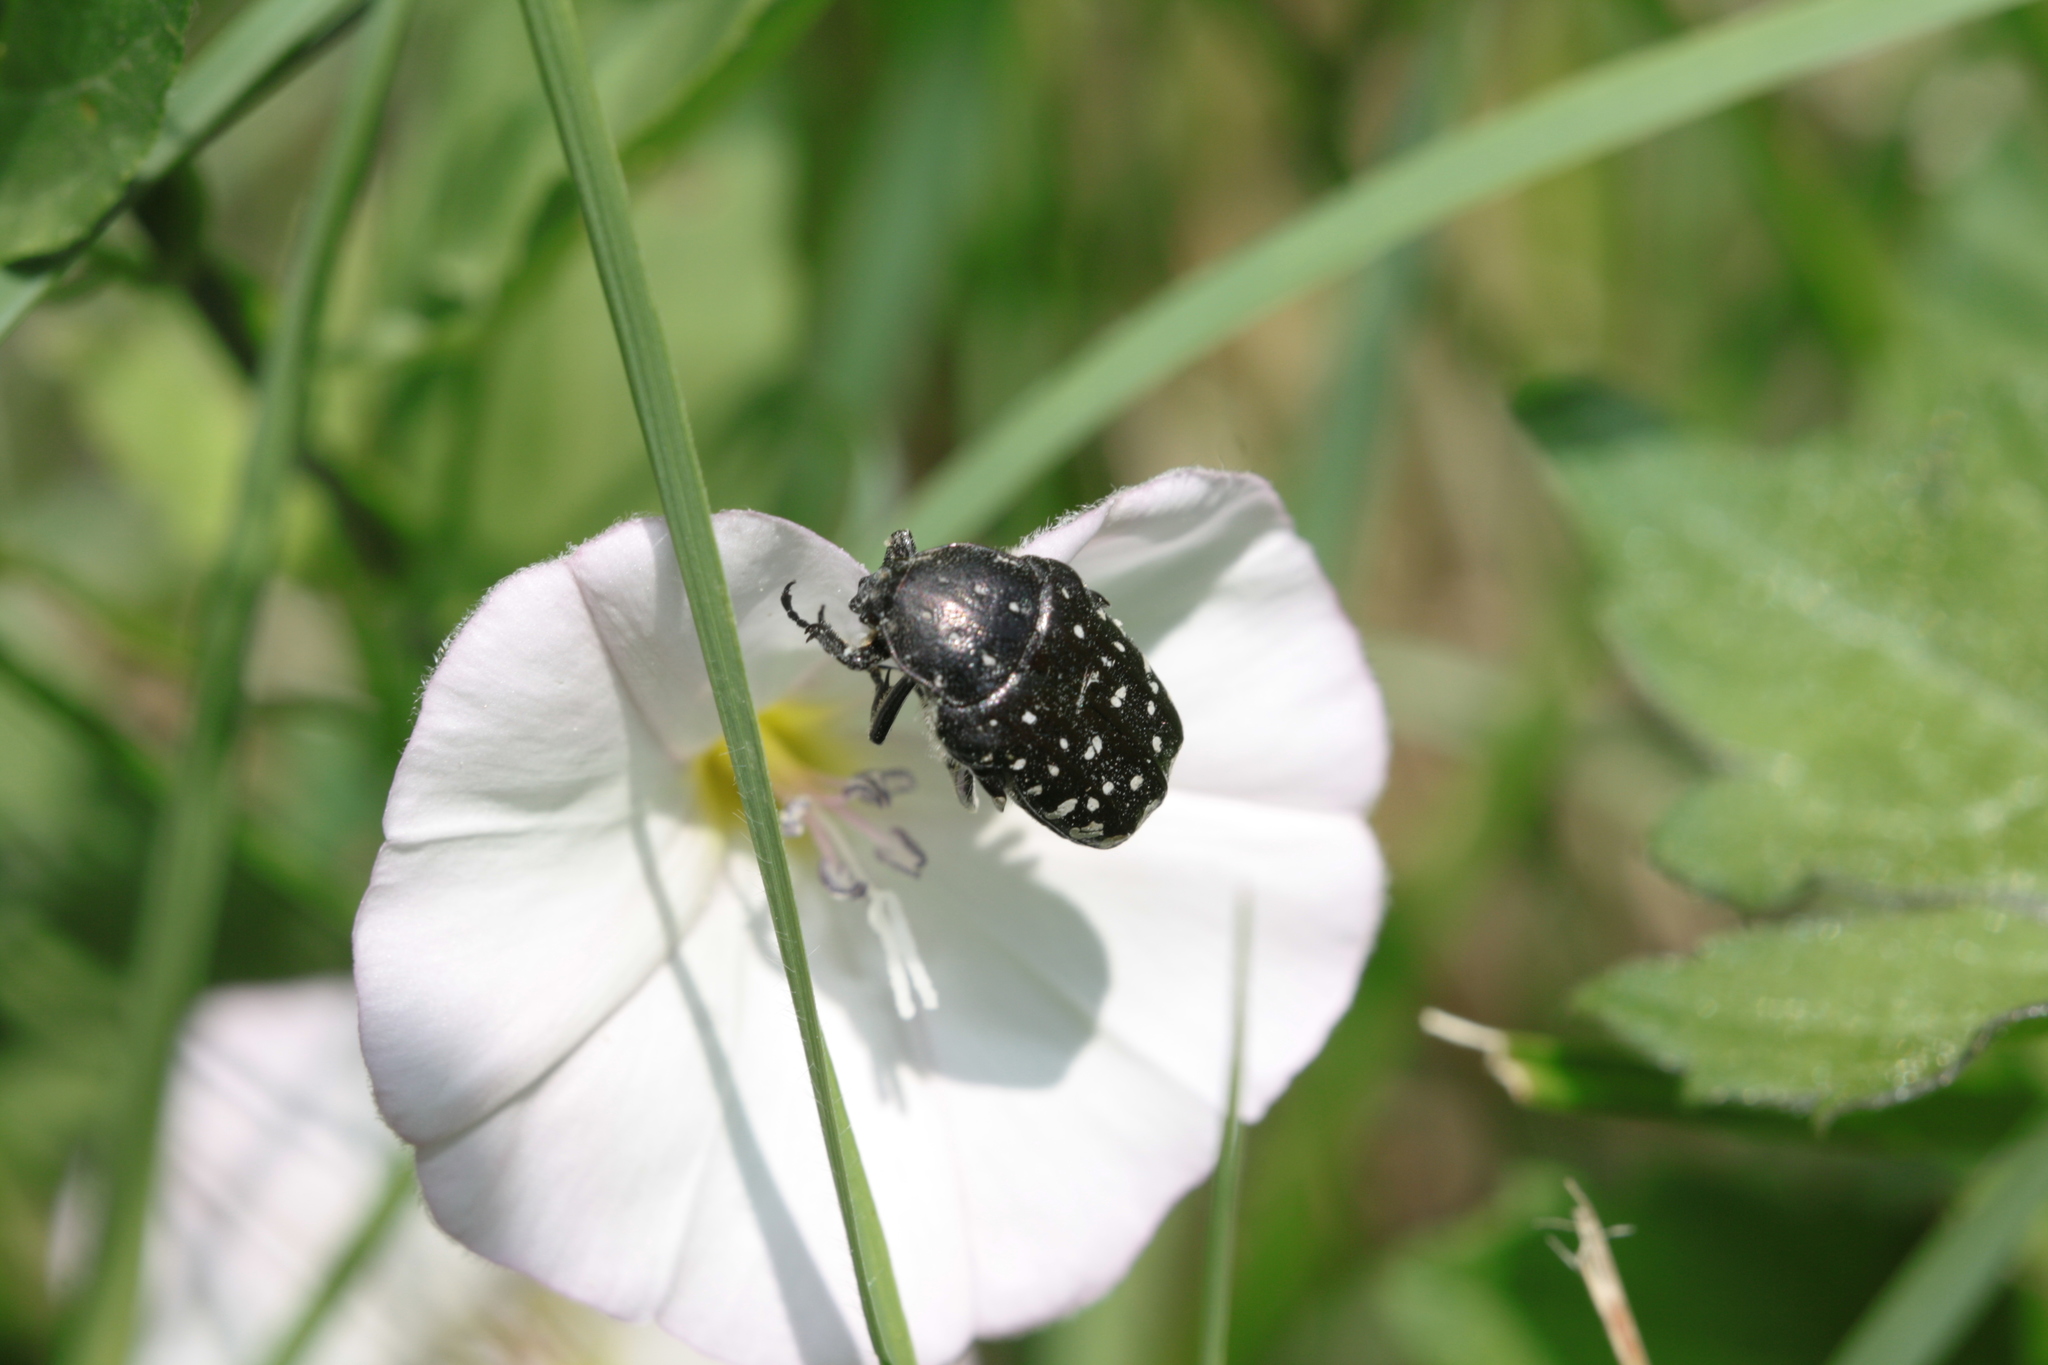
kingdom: Animalia
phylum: Arthropoda
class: Insecta
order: Coleoptera
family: Scarabaeidae
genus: Oxythyrea
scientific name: Oxythyrea funesta
